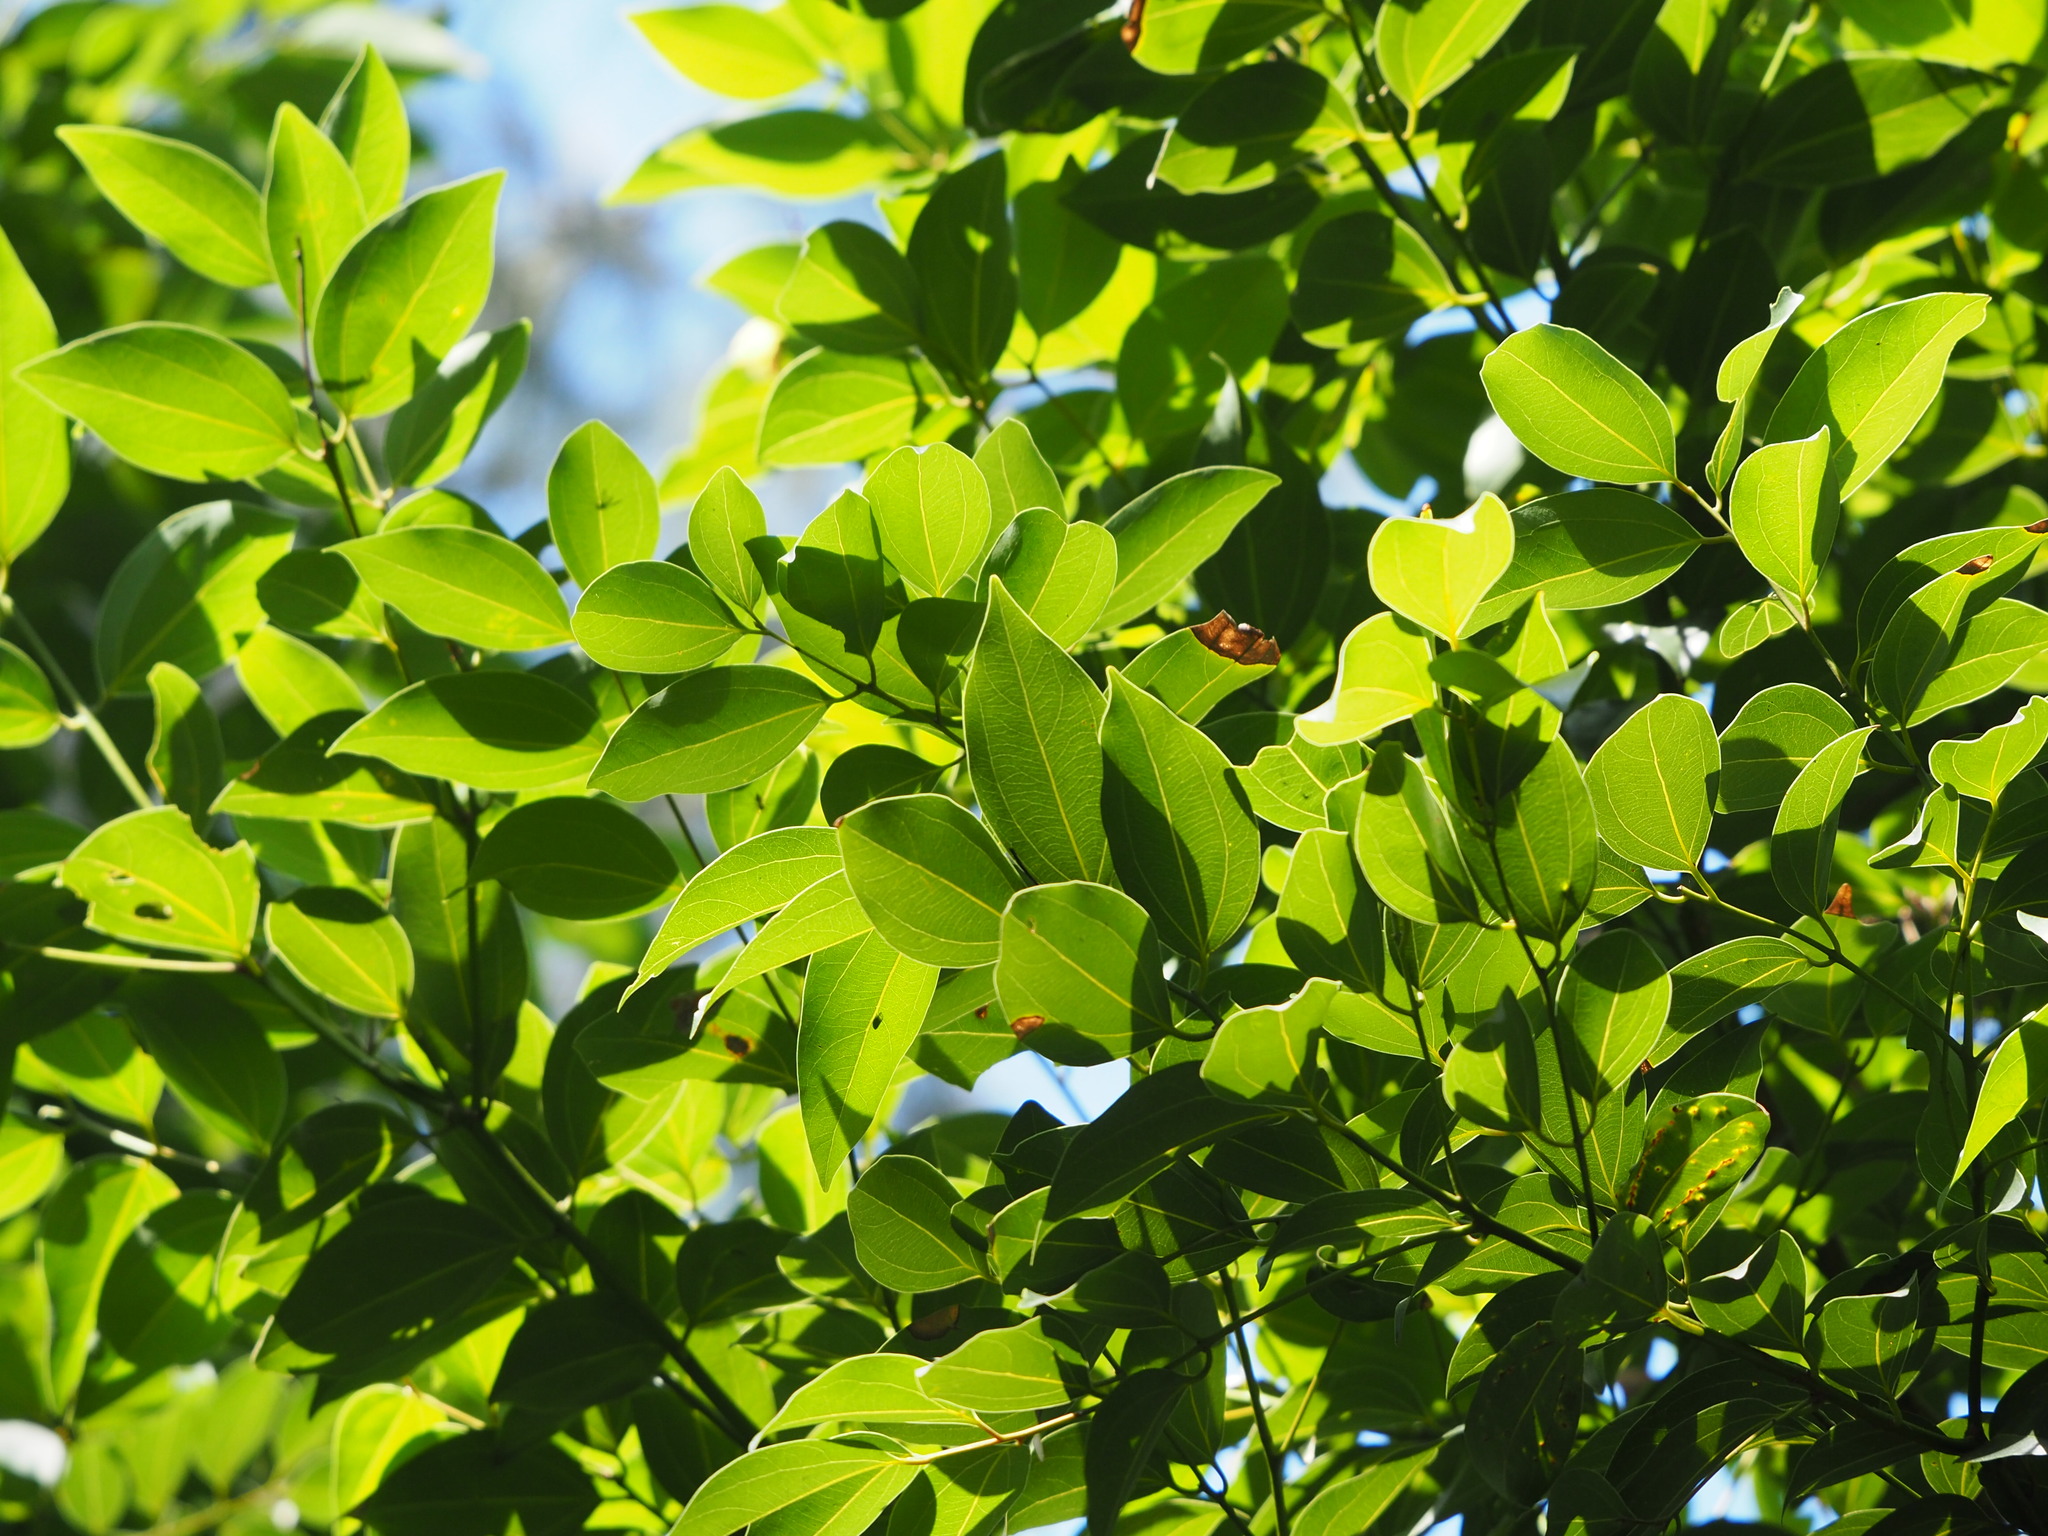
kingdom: Plantae
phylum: Tracheophyta
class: Magnoliopsida
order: Laurales
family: Lauraceae
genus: Cinnamomum
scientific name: Cinnamomum burmanni
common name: Padang cassia
